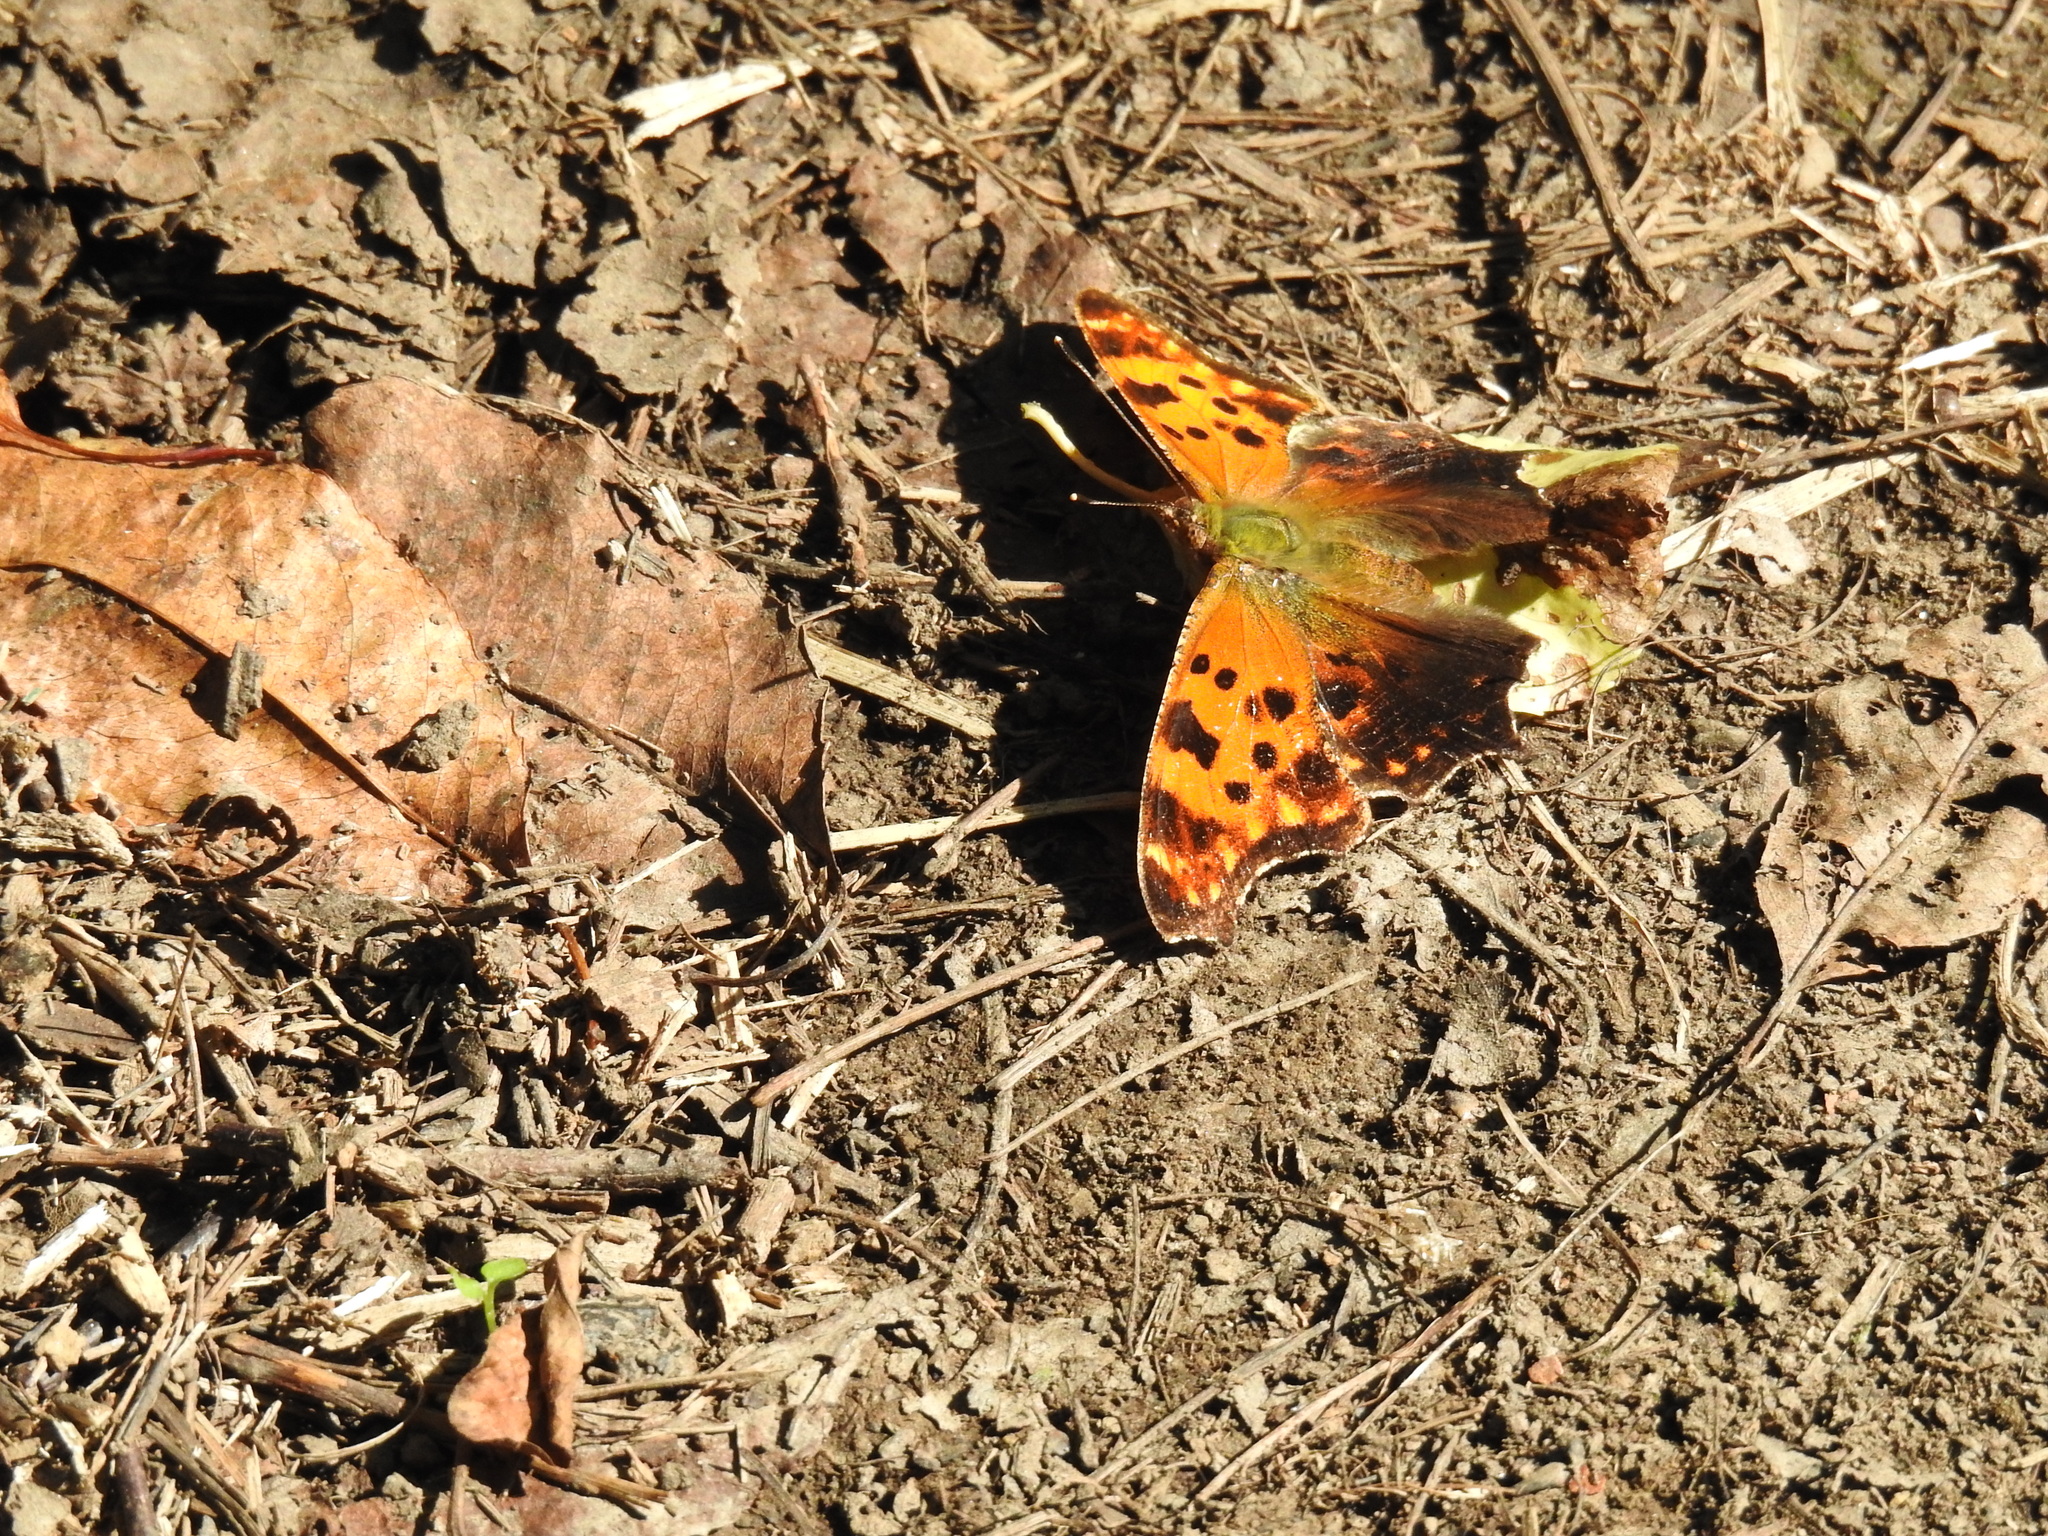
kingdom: Animalia
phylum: Arthropoda
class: Insecta
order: Lepidoptera
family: Nymphalidae
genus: Polygonia
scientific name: Polygonia comma
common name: Eastern comma
